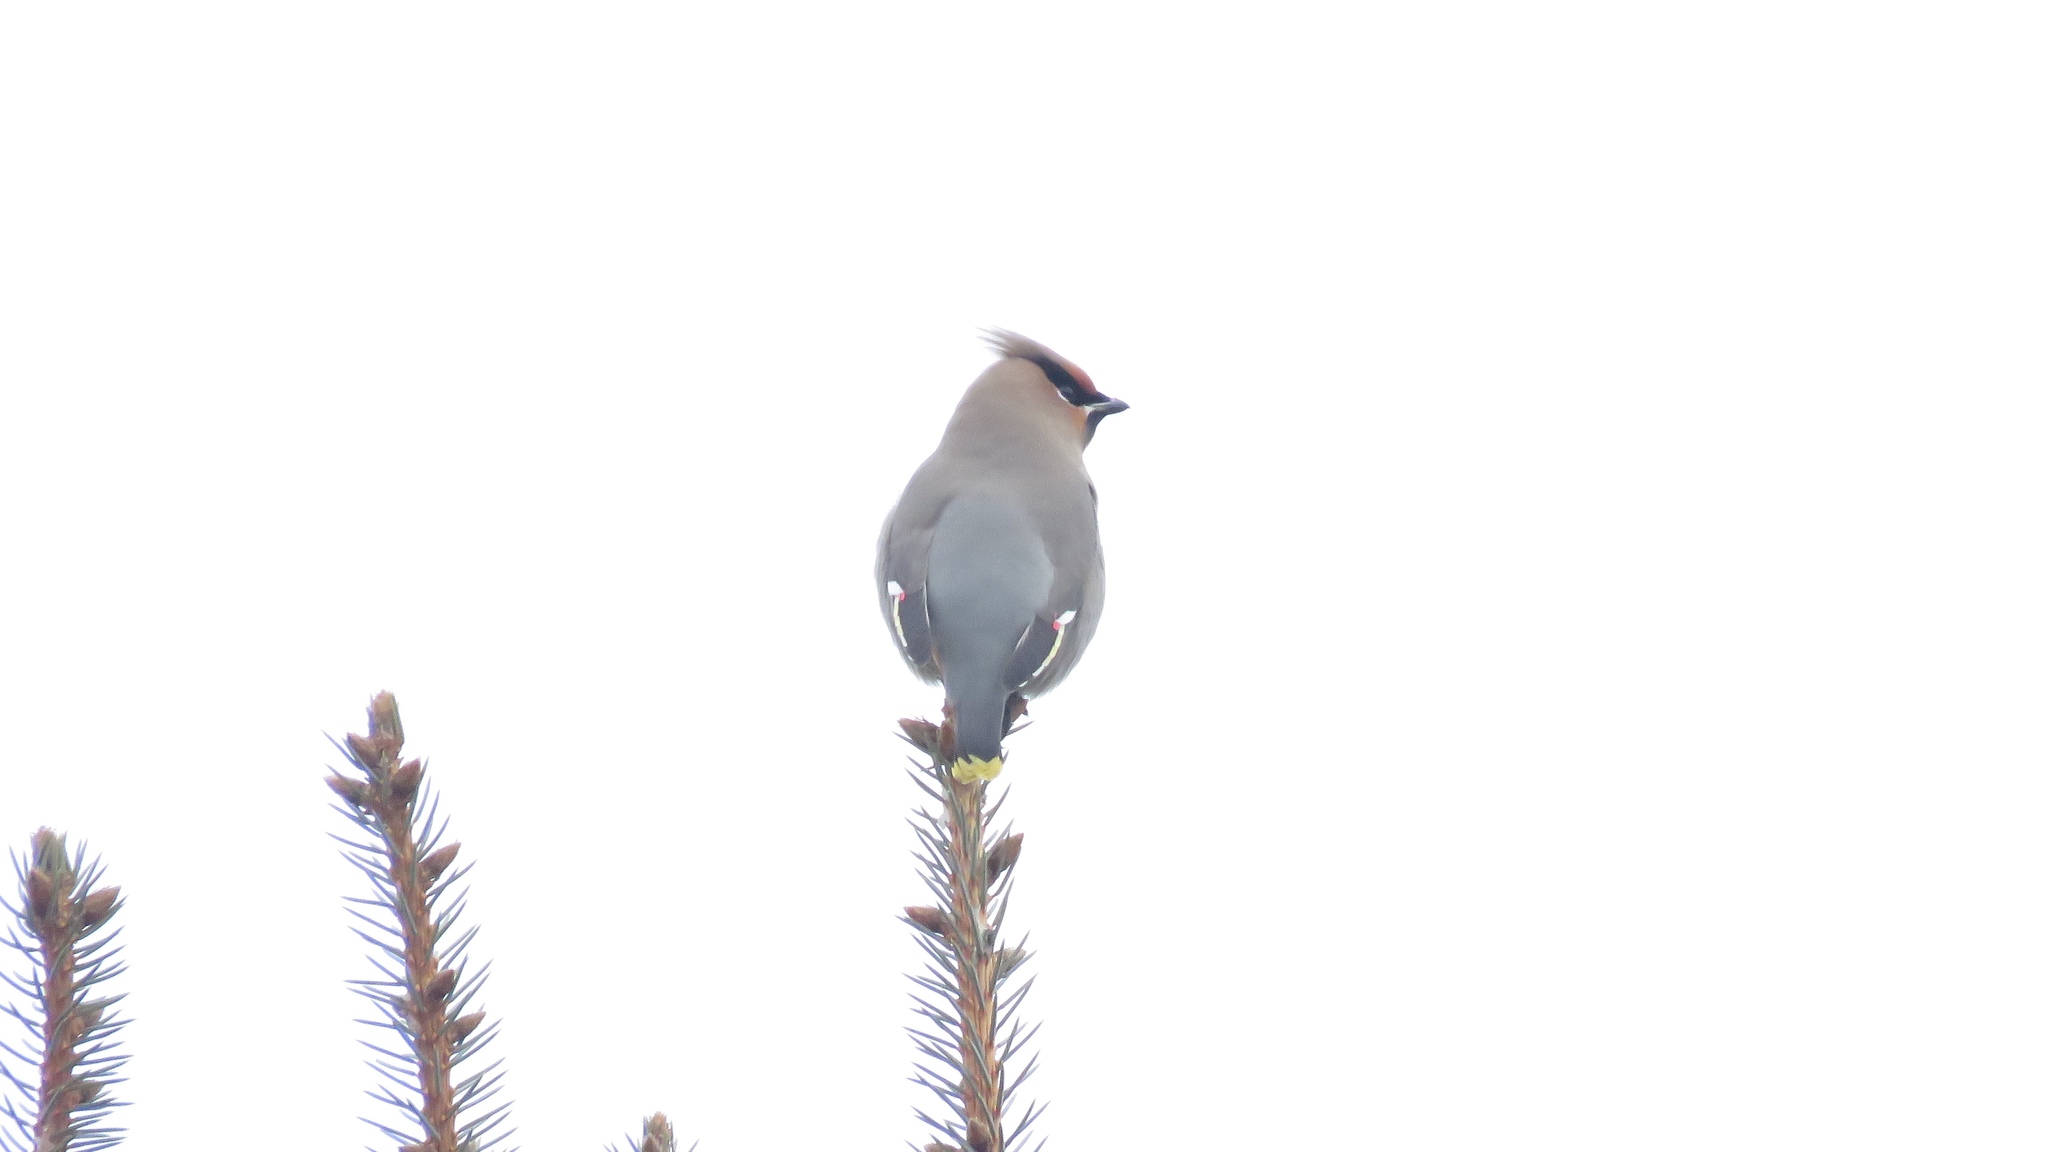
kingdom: Animalia
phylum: Chordata
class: Aves
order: Passeriformes
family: Bombycillidae
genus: Bombycilla
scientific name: Bombycilla garrulus
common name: Bohemian waxwing
